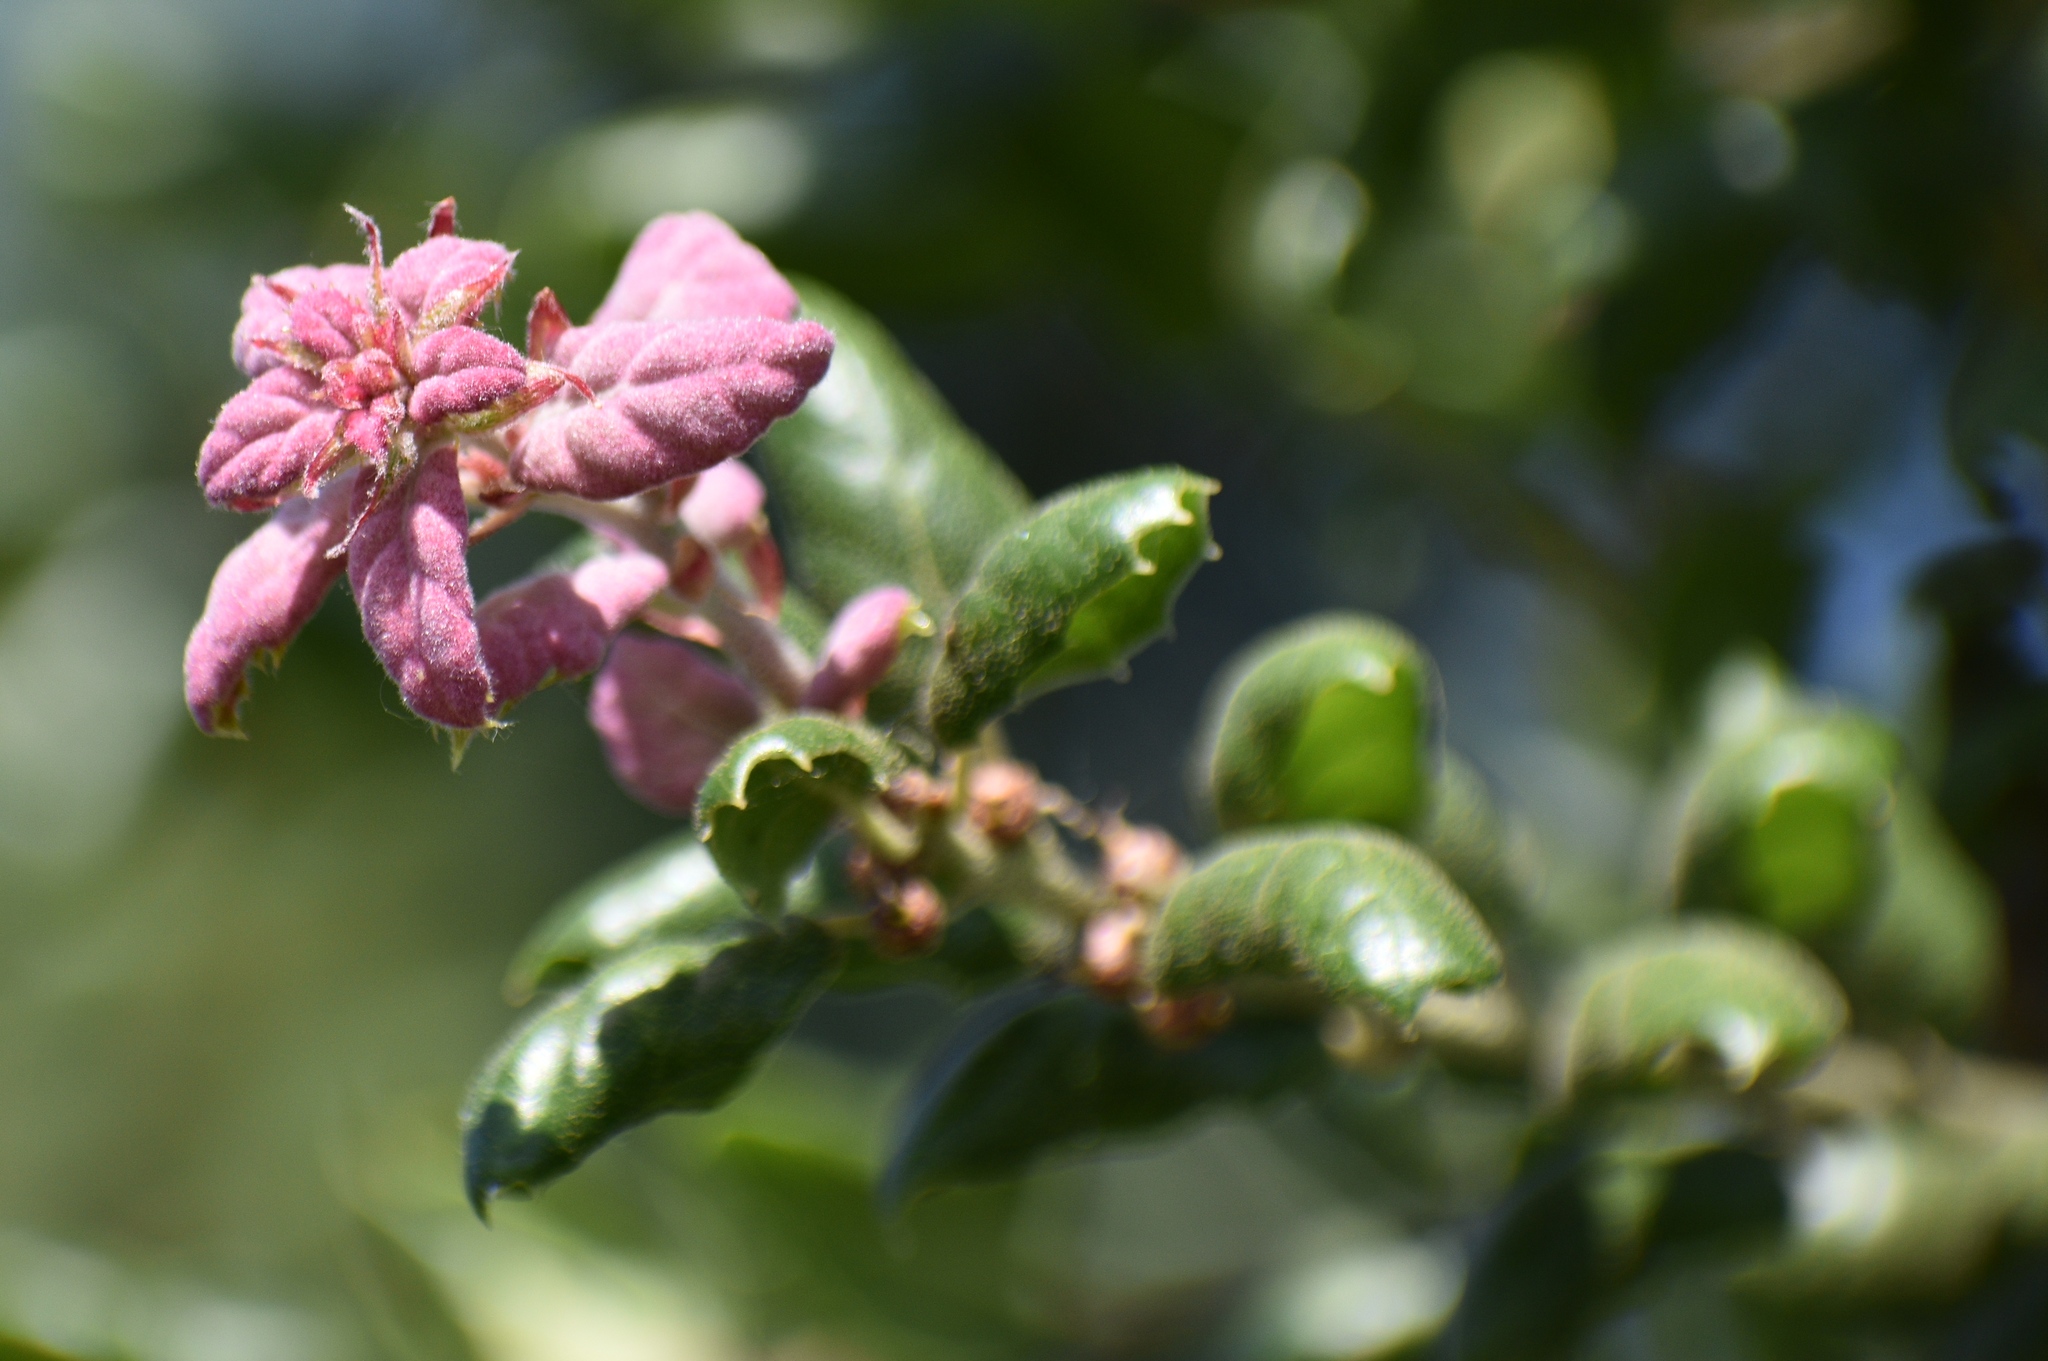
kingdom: Plantae
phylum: Tracheophyta
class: Magnoliopsida
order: Fagales
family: Fagaceae
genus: Quercus
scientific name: Quercus agrifolia
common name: California live oak
